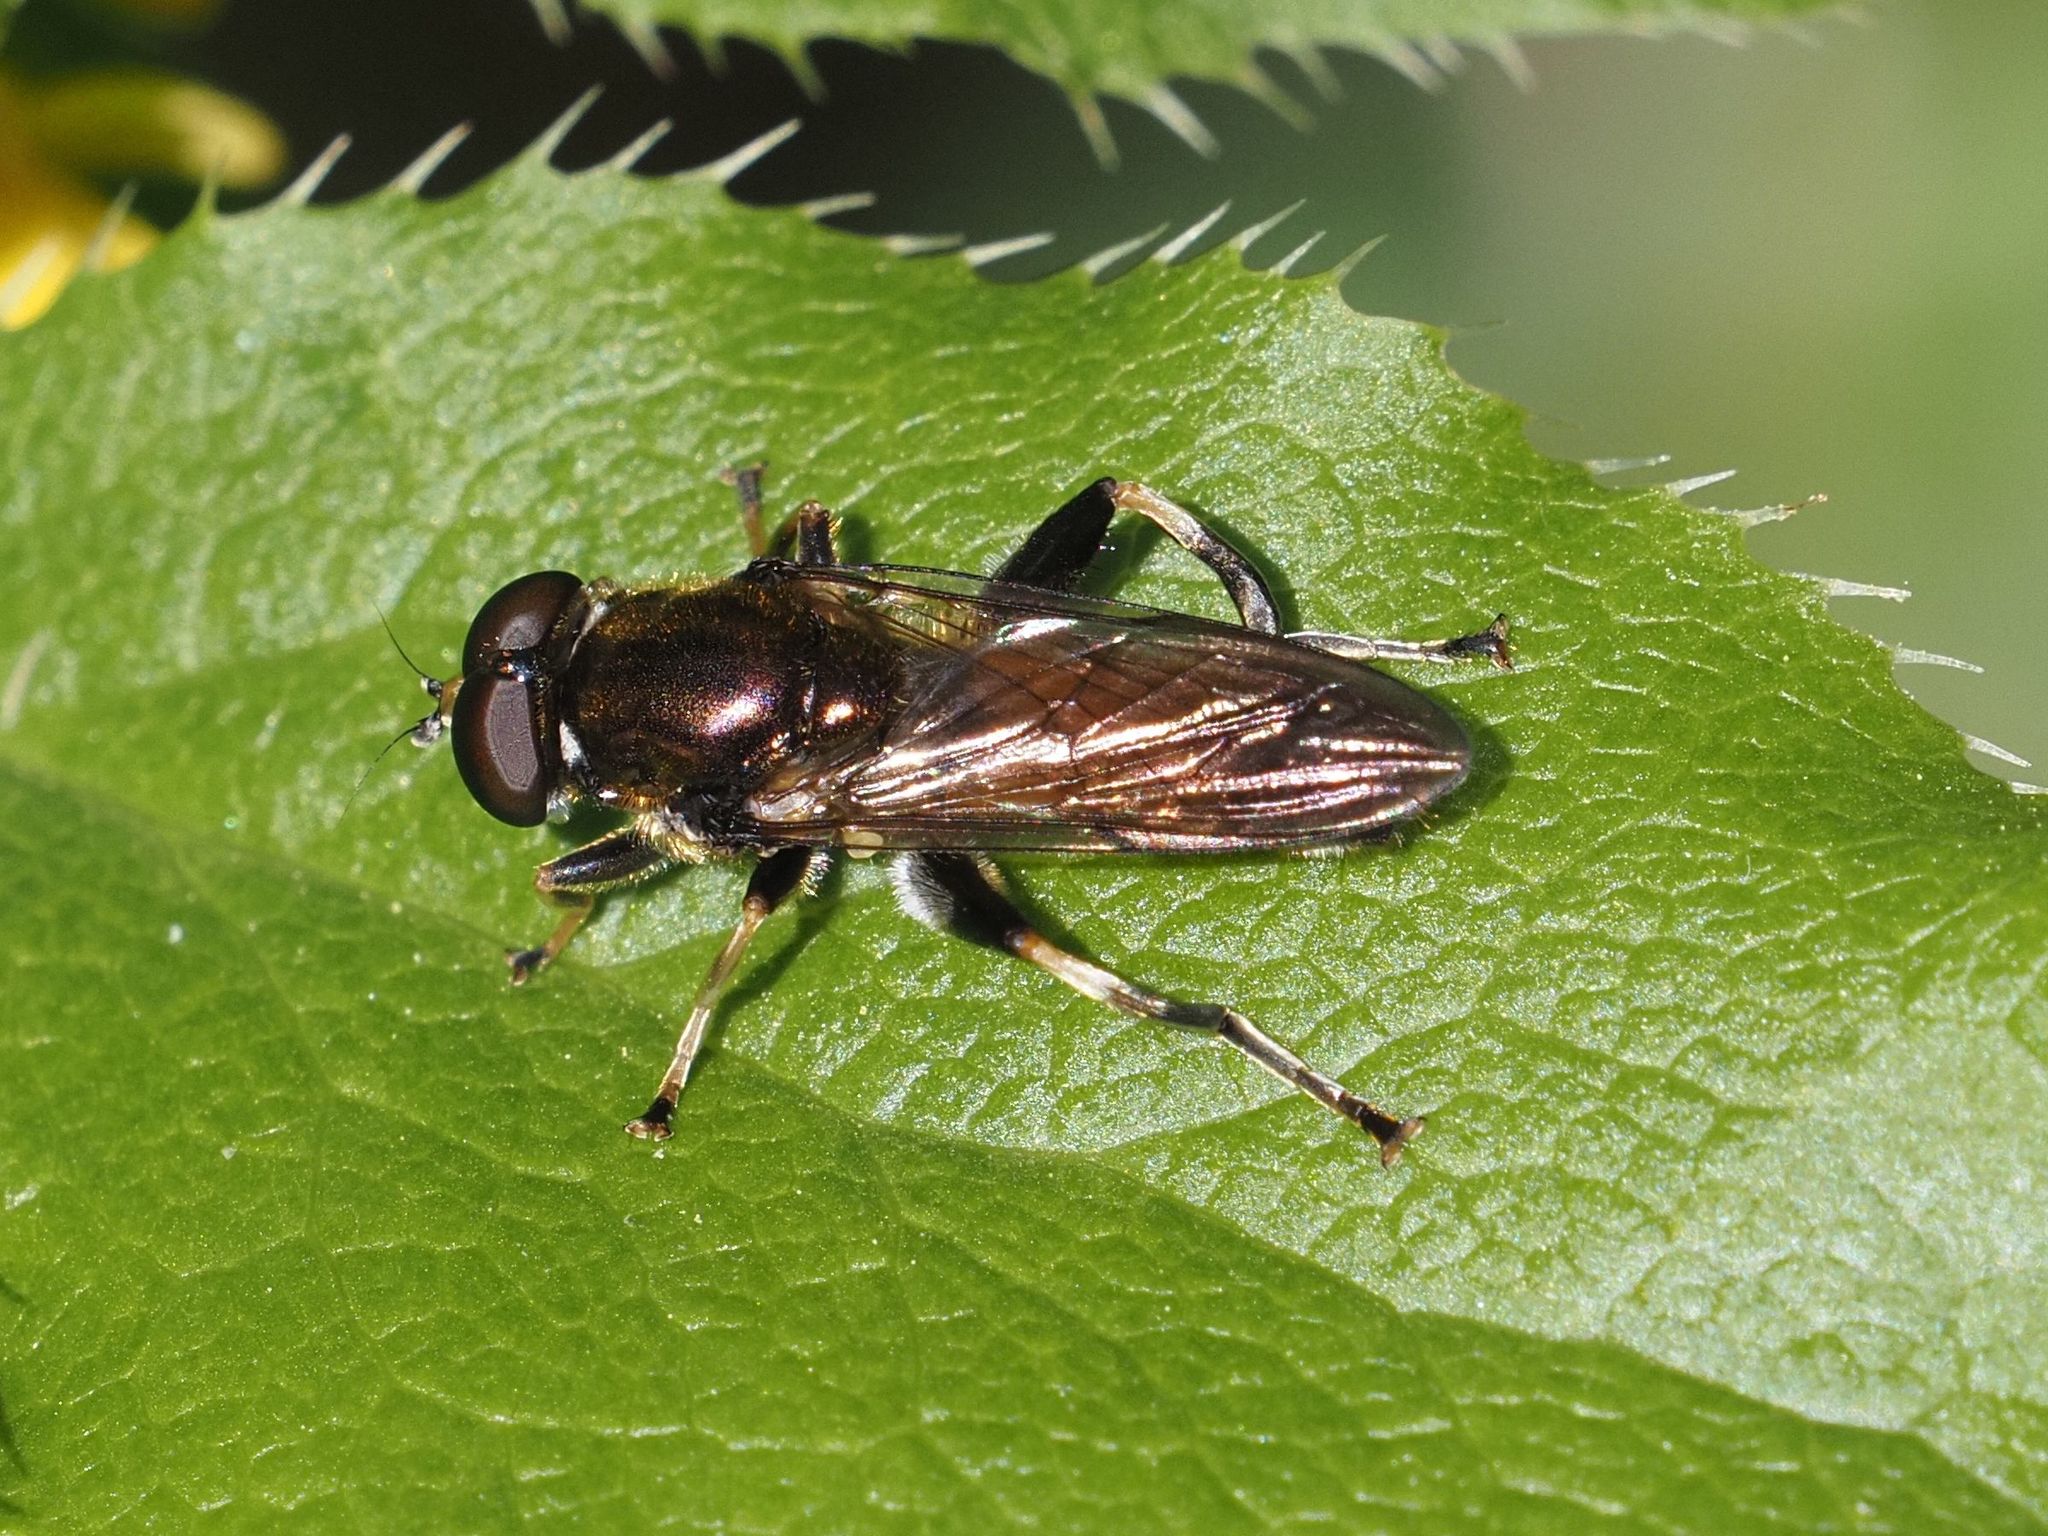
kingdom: Animalia
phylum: Arthropoda
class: Insecta
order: Diptera
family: Syrphidae
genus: Xylota
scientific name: Xylota segnis
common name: Brown-toed forest fly
